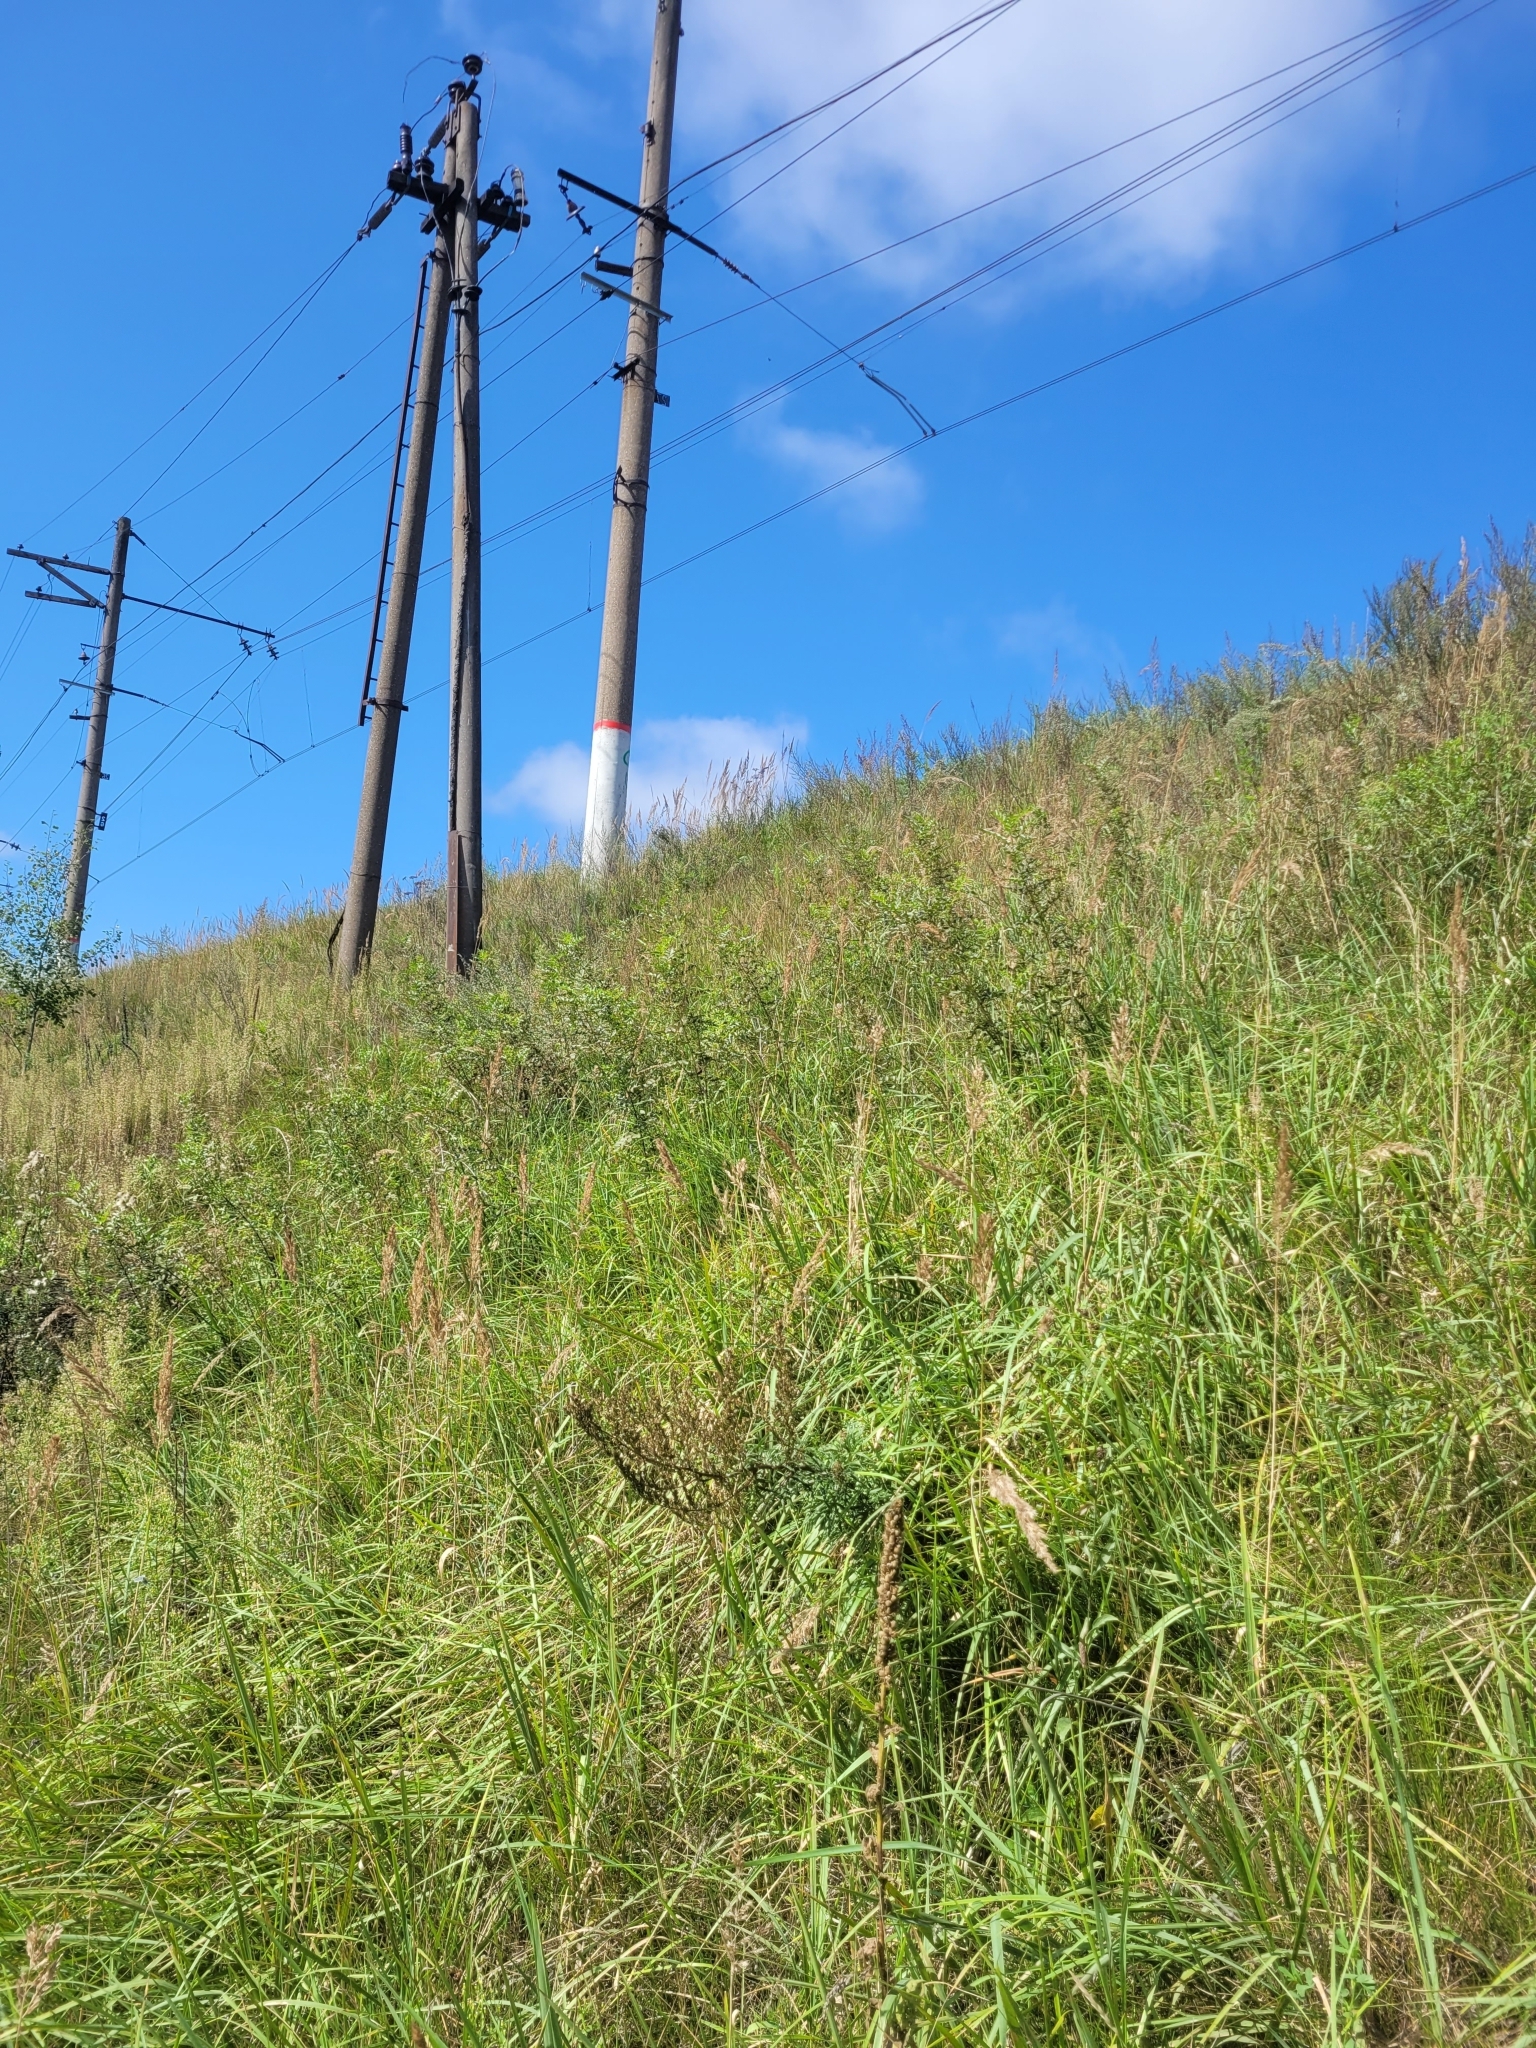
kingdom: Plantae
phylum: Tracheophyta
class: Magnoliopsida
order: Fabales
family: Fabaceae
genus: Glycyrrhiza
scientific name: Glycyrrhiza glabra
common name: Liquorice
